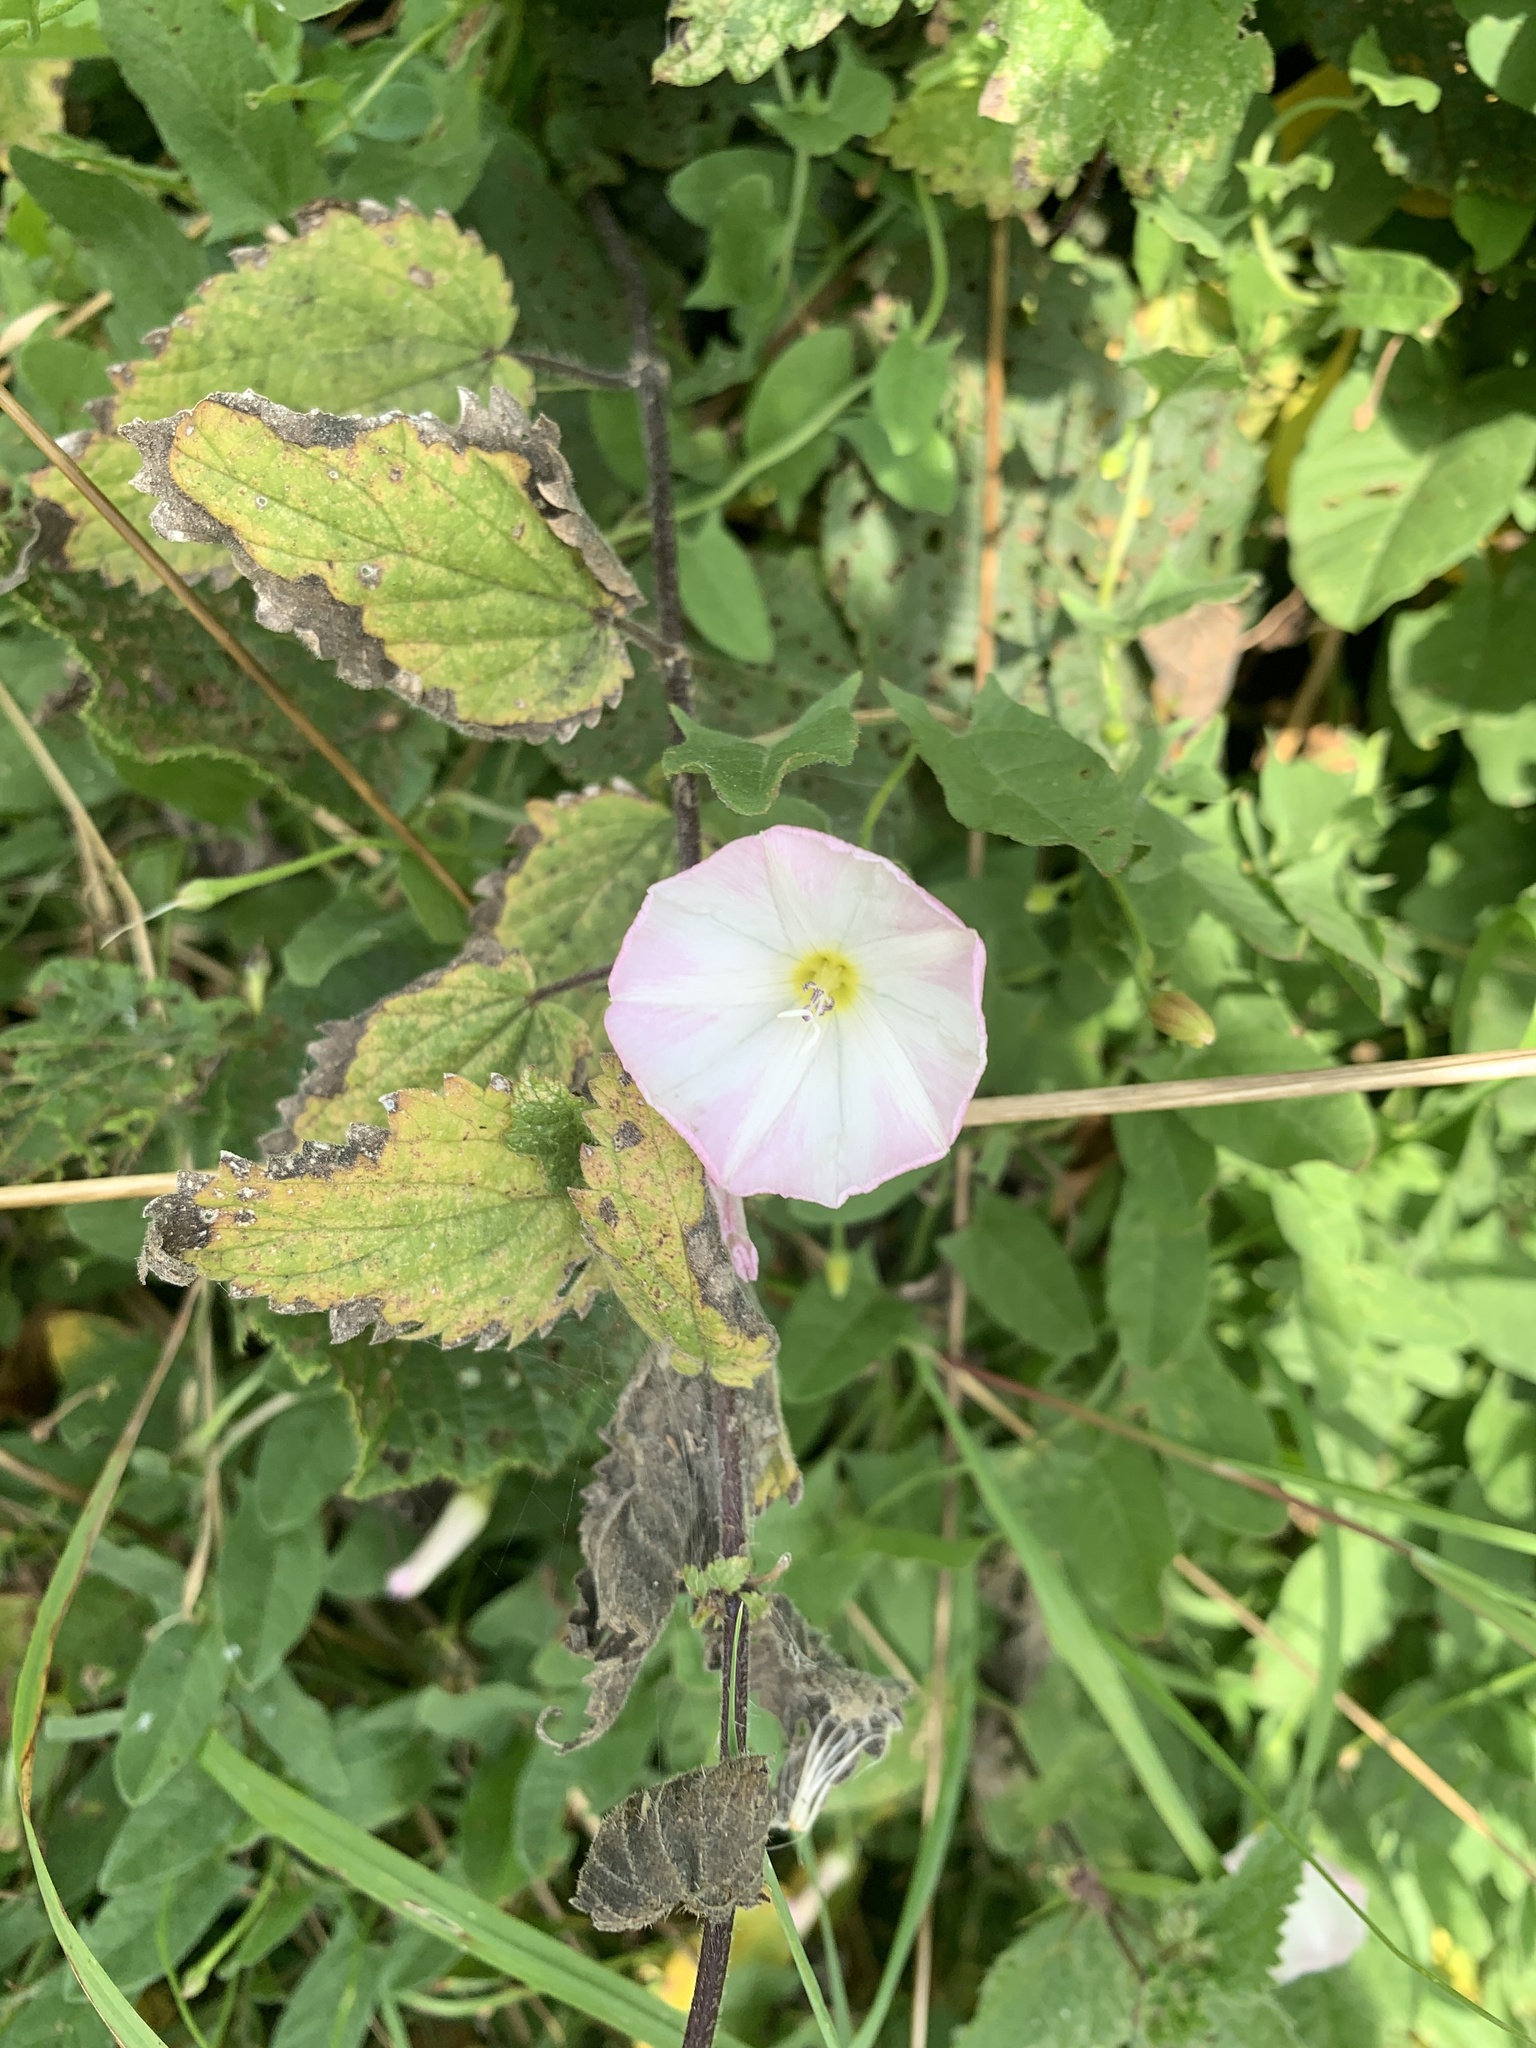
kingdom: Plantae
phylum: Tracheophyta
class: Magnoliopsida
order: Solanales
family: Convolvulaceae
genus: Convolvulus
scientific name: Convolvulus arvensis
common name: Field bindweed
